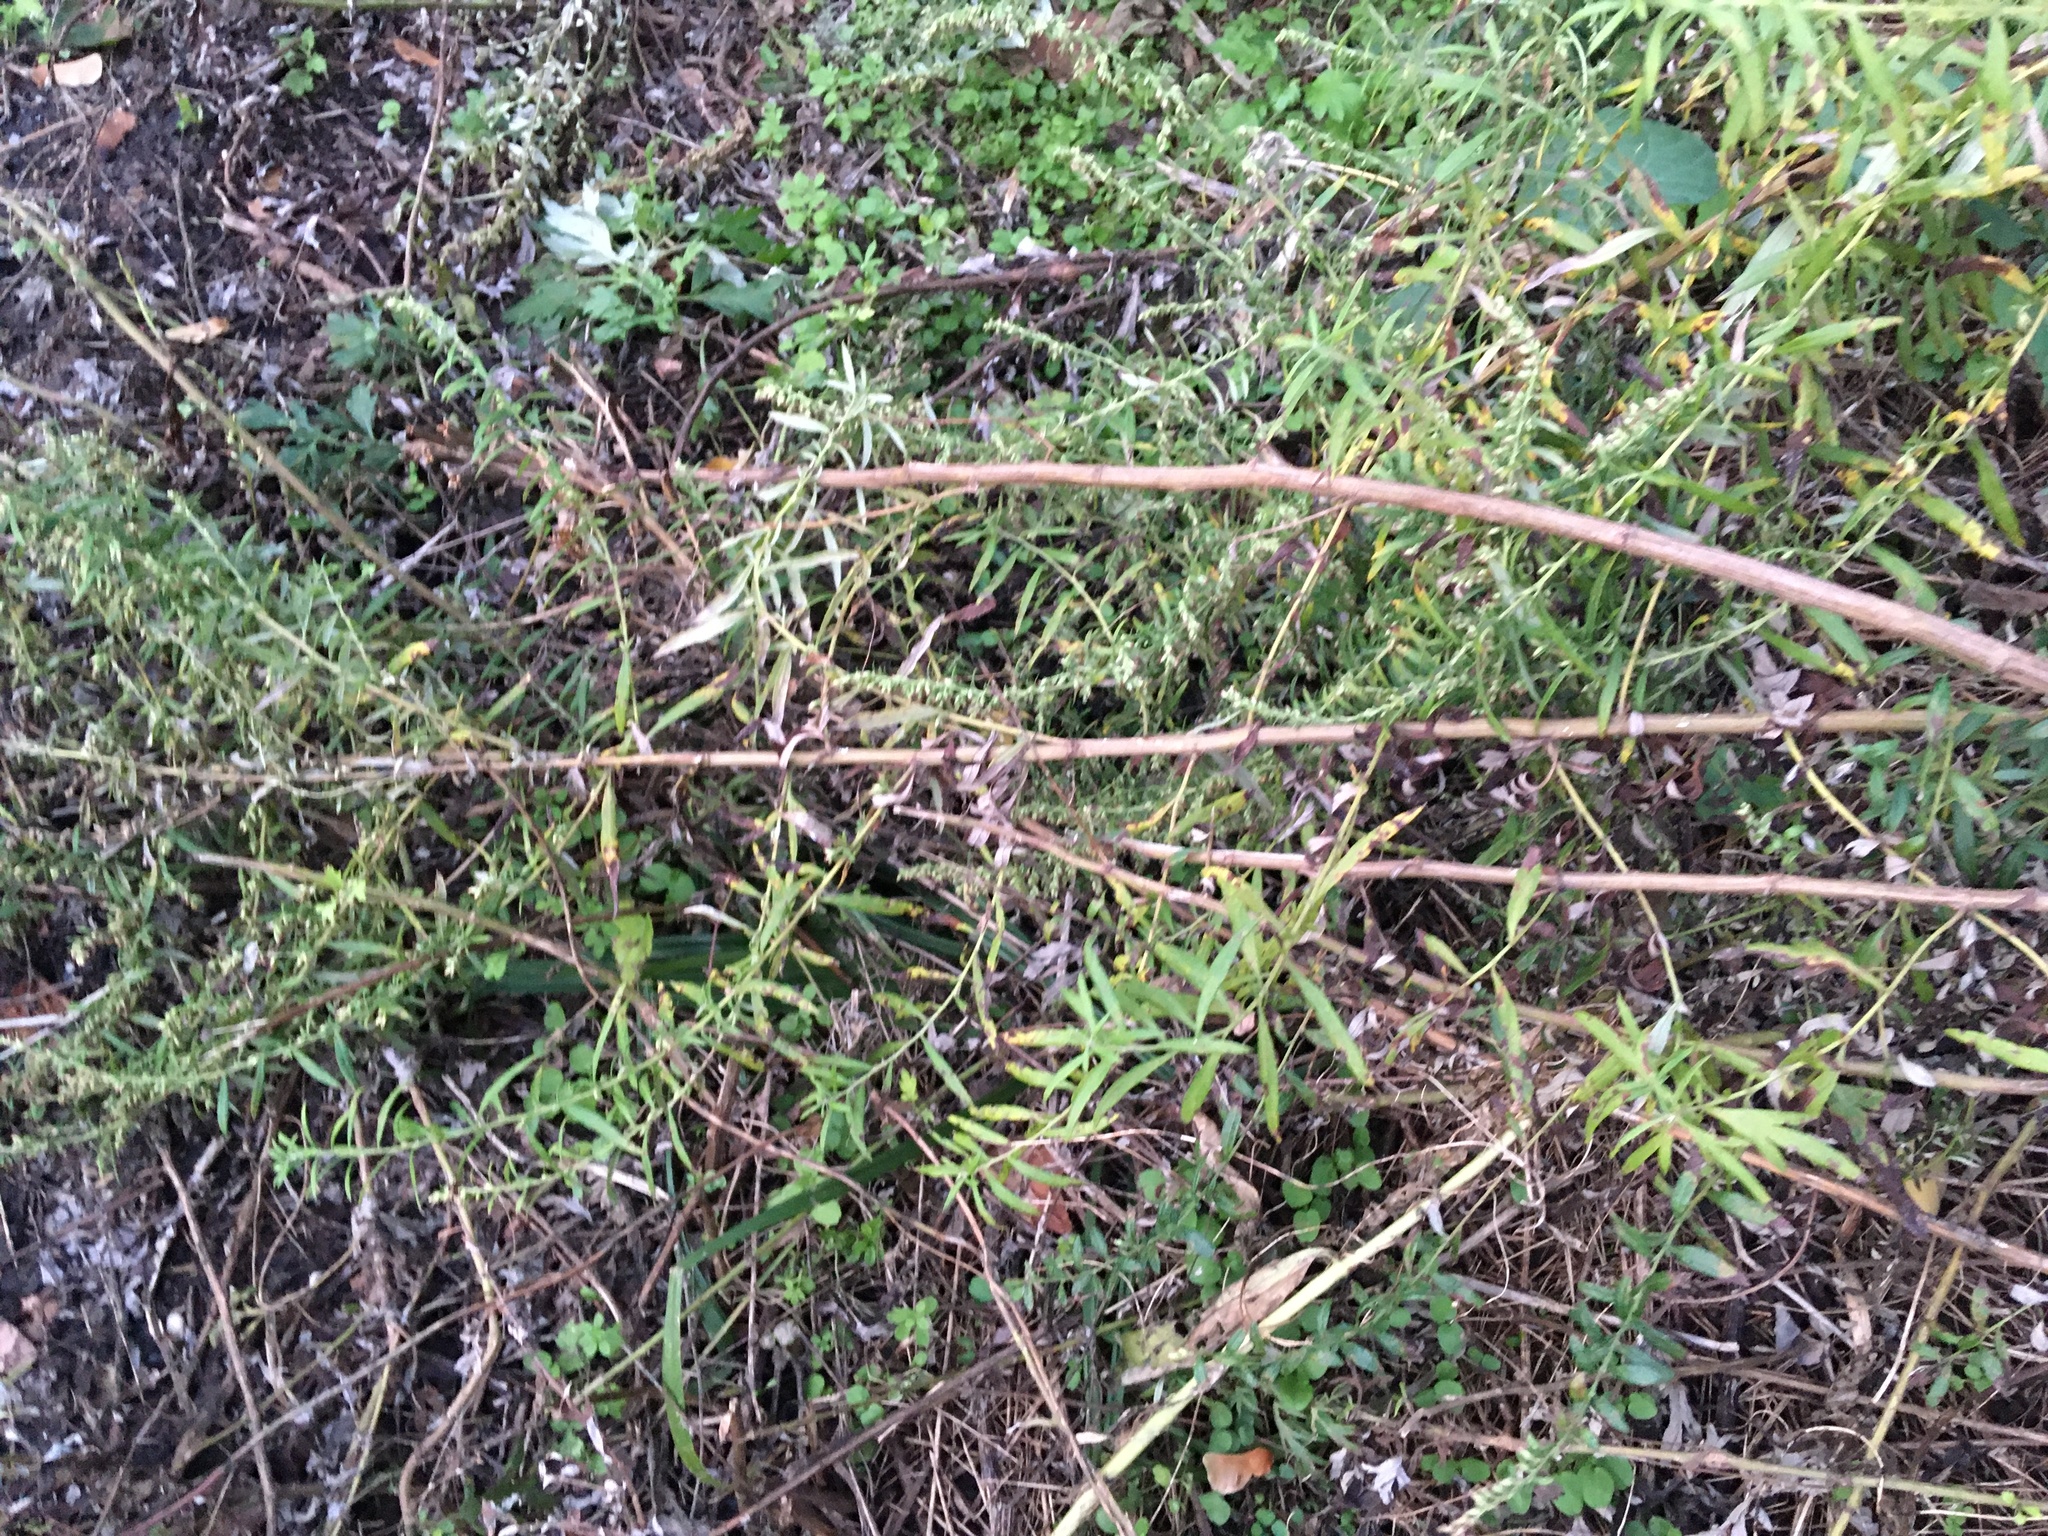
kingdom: Plantae
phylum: Tracheophyta
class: Magnoliopsida
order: Asterales
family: Asteraceae
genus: Artemisia
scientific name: Artemisia vulgaris
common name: Mugwort
